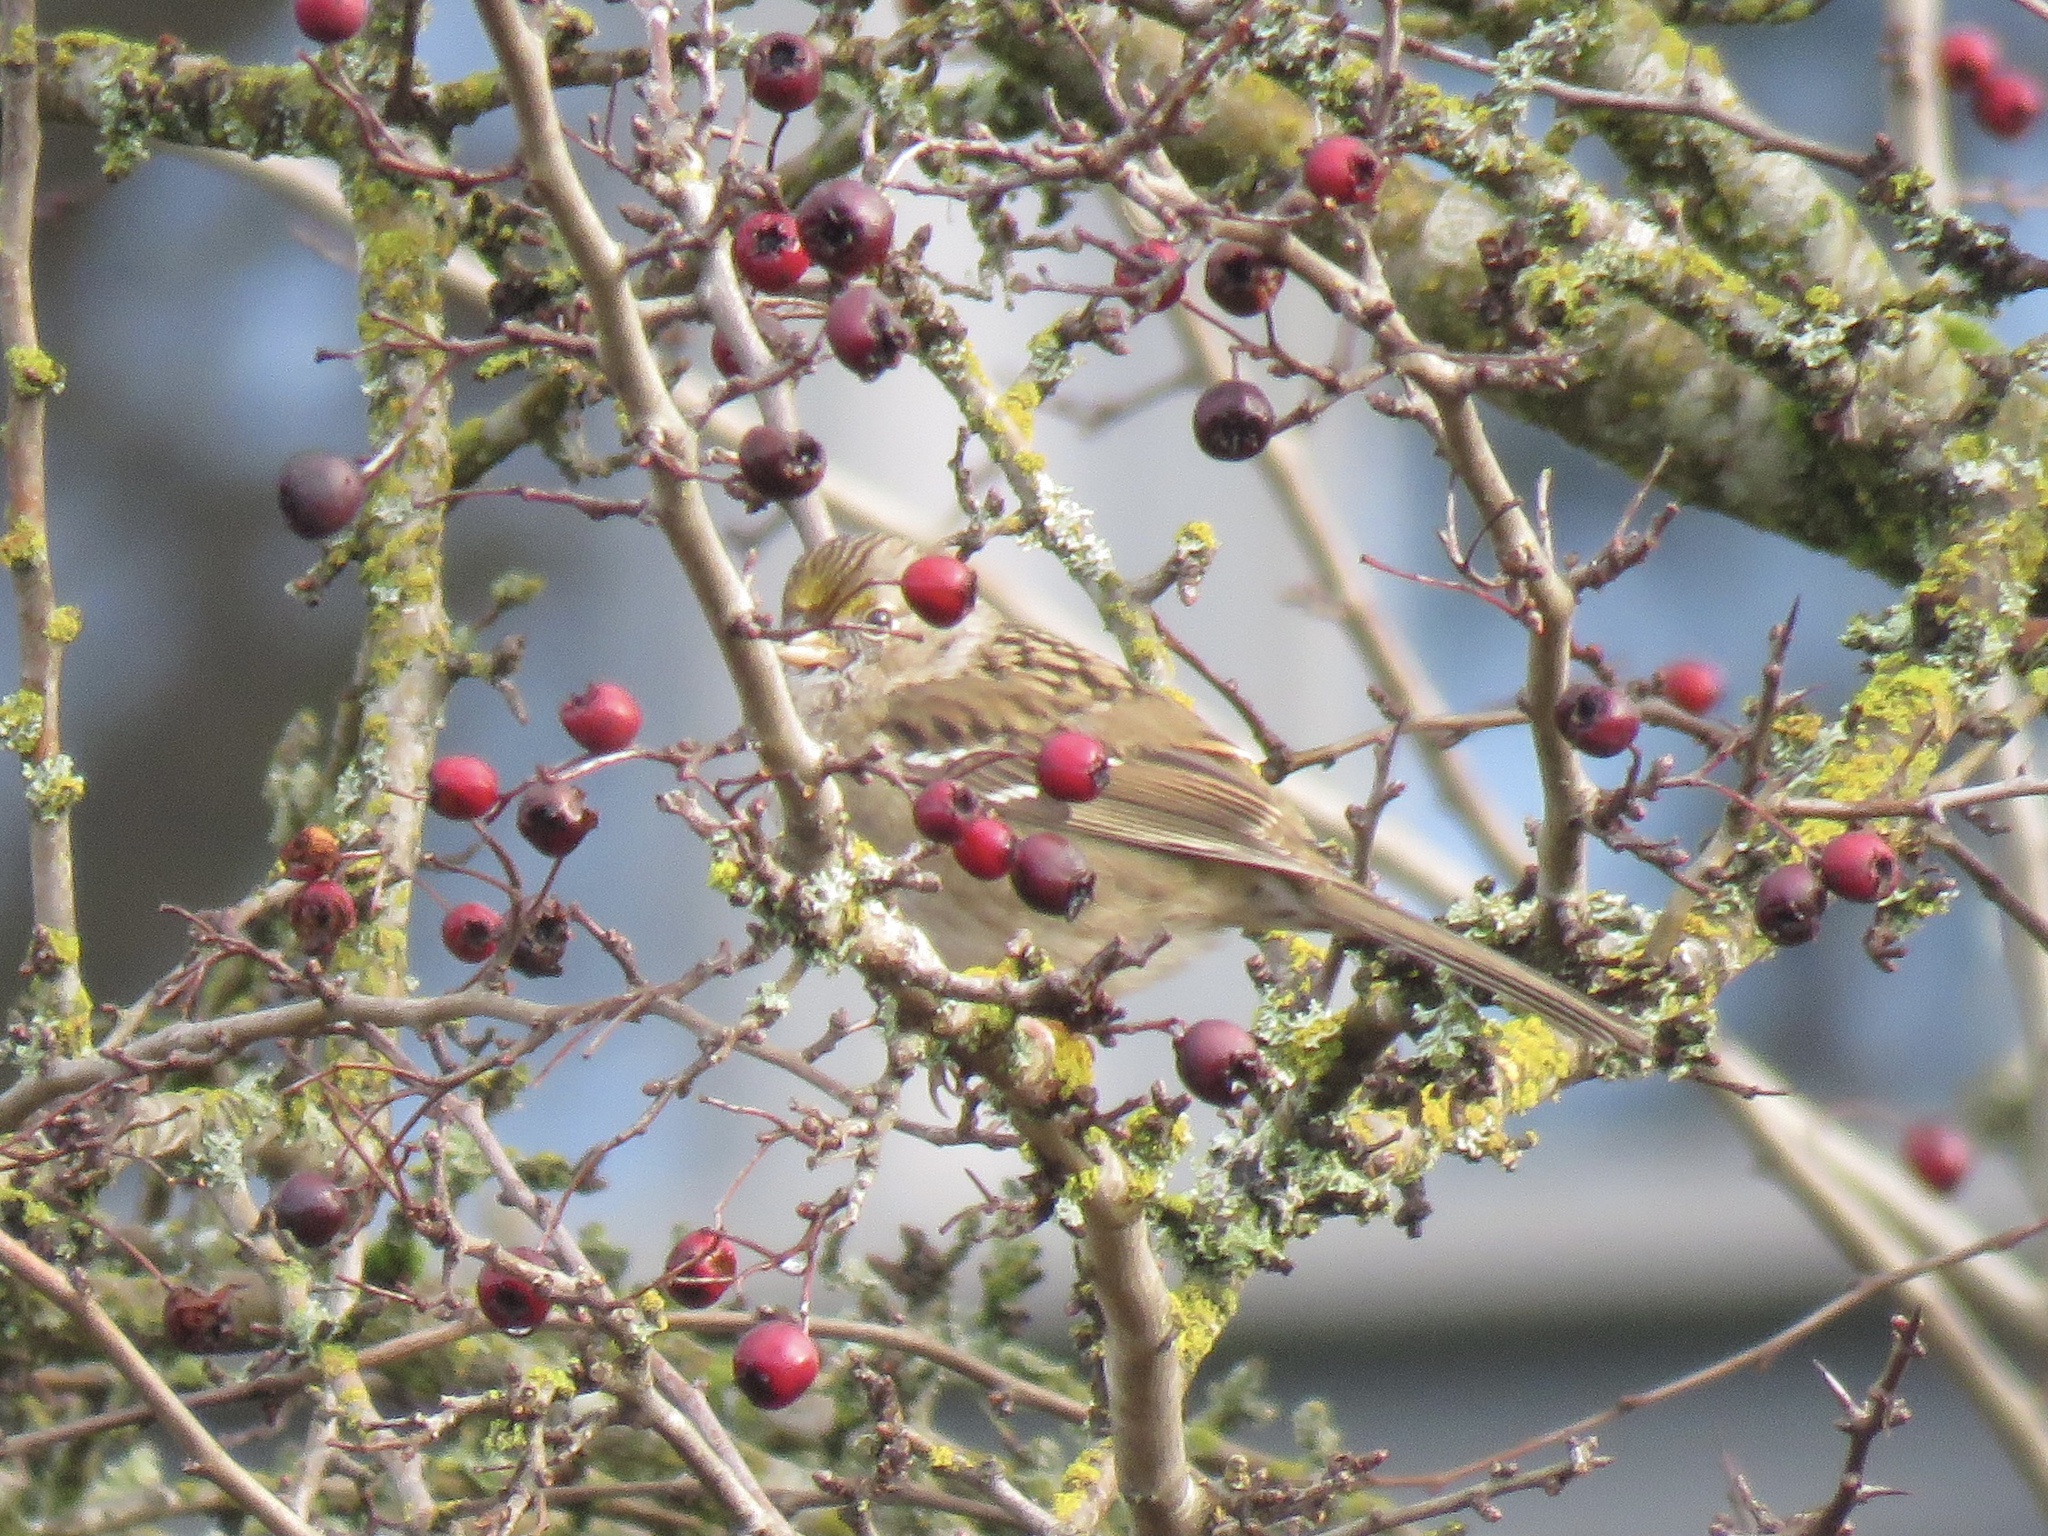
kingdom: Animalia
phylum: Chordata
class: Aves
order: Passeriformes
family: Passerellidae
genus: Zonotrichia
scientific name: Zonotrichia atricapilla
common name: Golden-crowned sparrow
